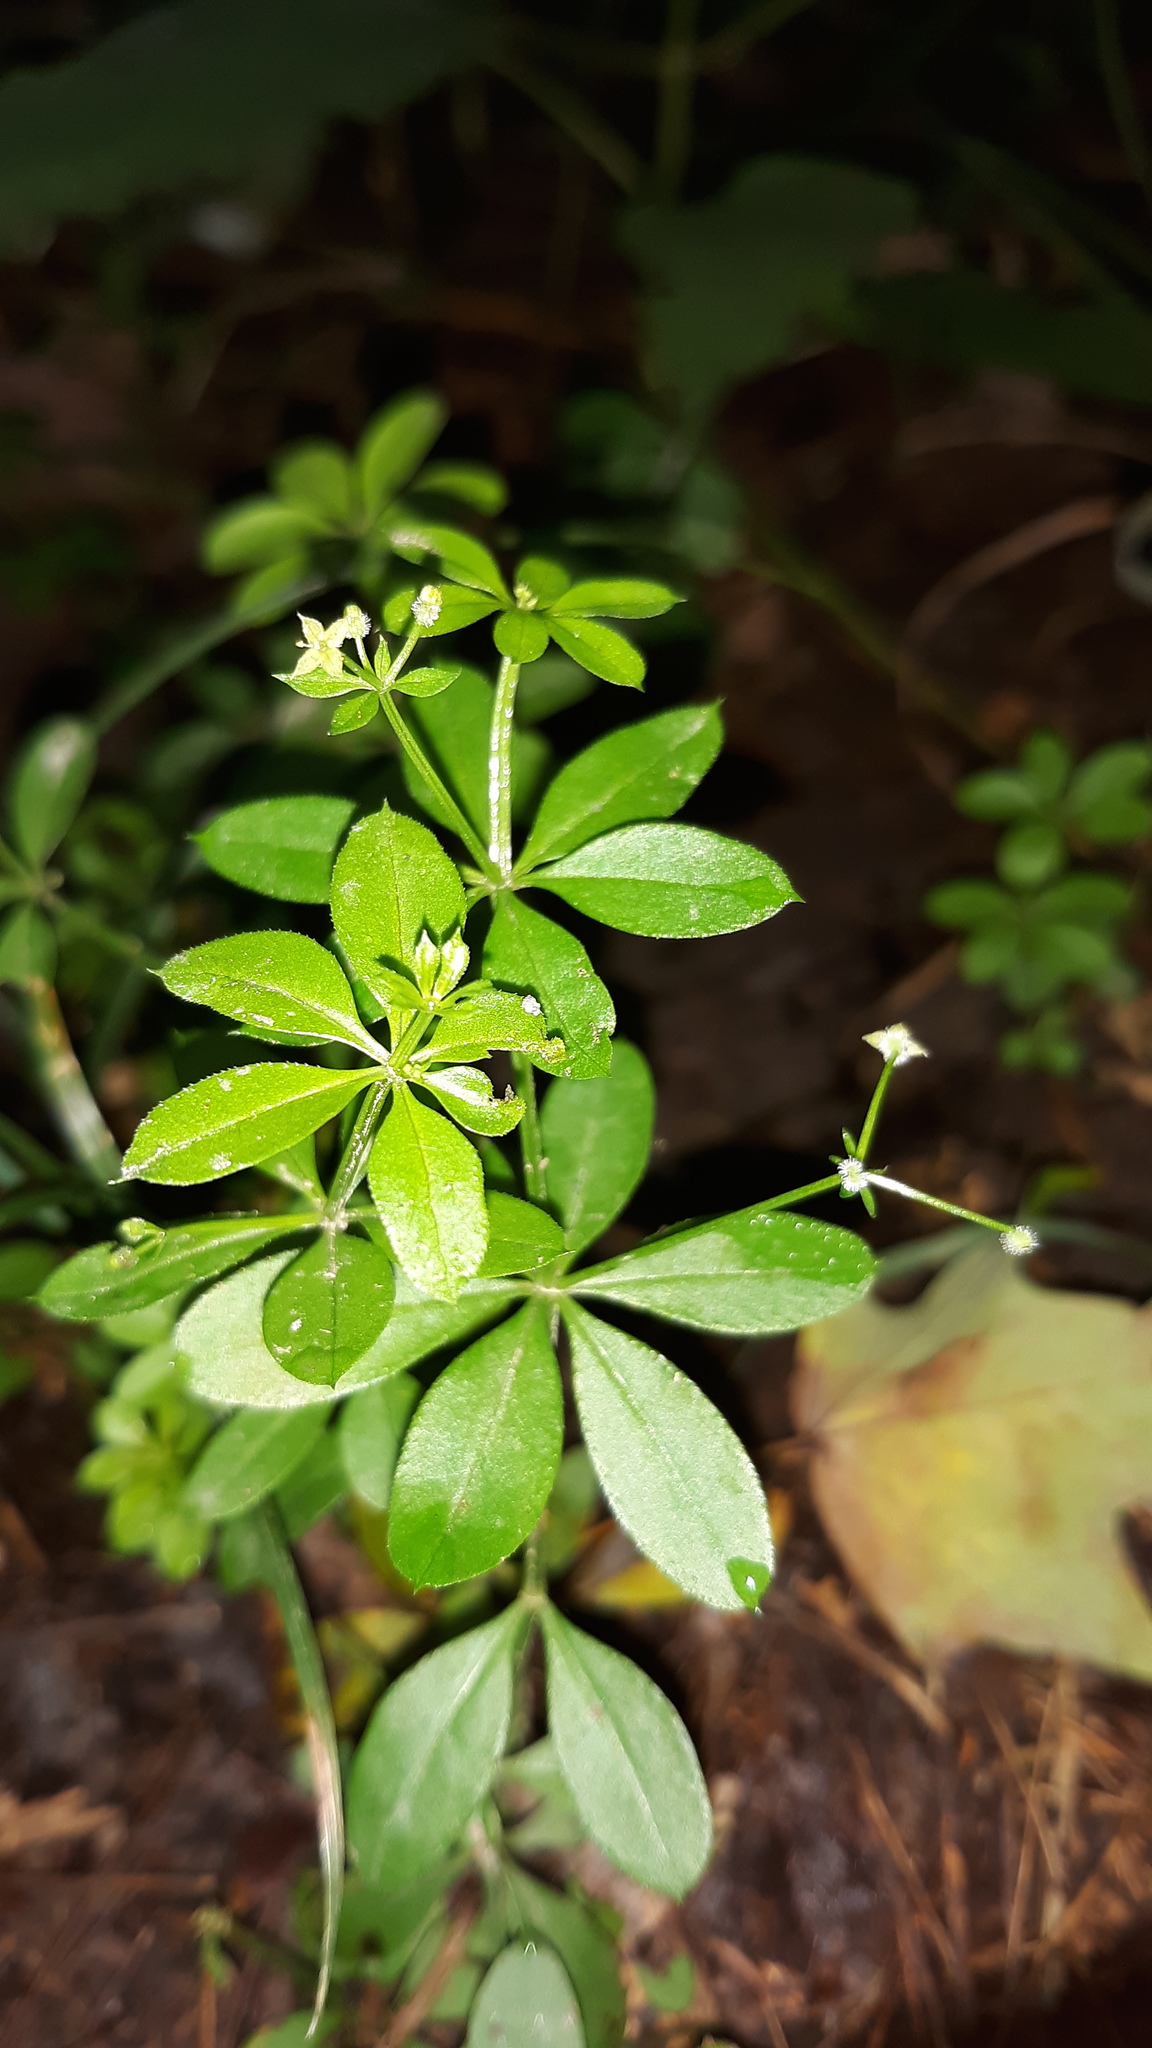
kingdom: Plantae
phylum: Tracheophyta
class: Magnoliopsida
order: Gentianales
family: Rubiaceae
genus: Galium
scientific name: Galium triflorum
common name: Fragrant bedstraw
